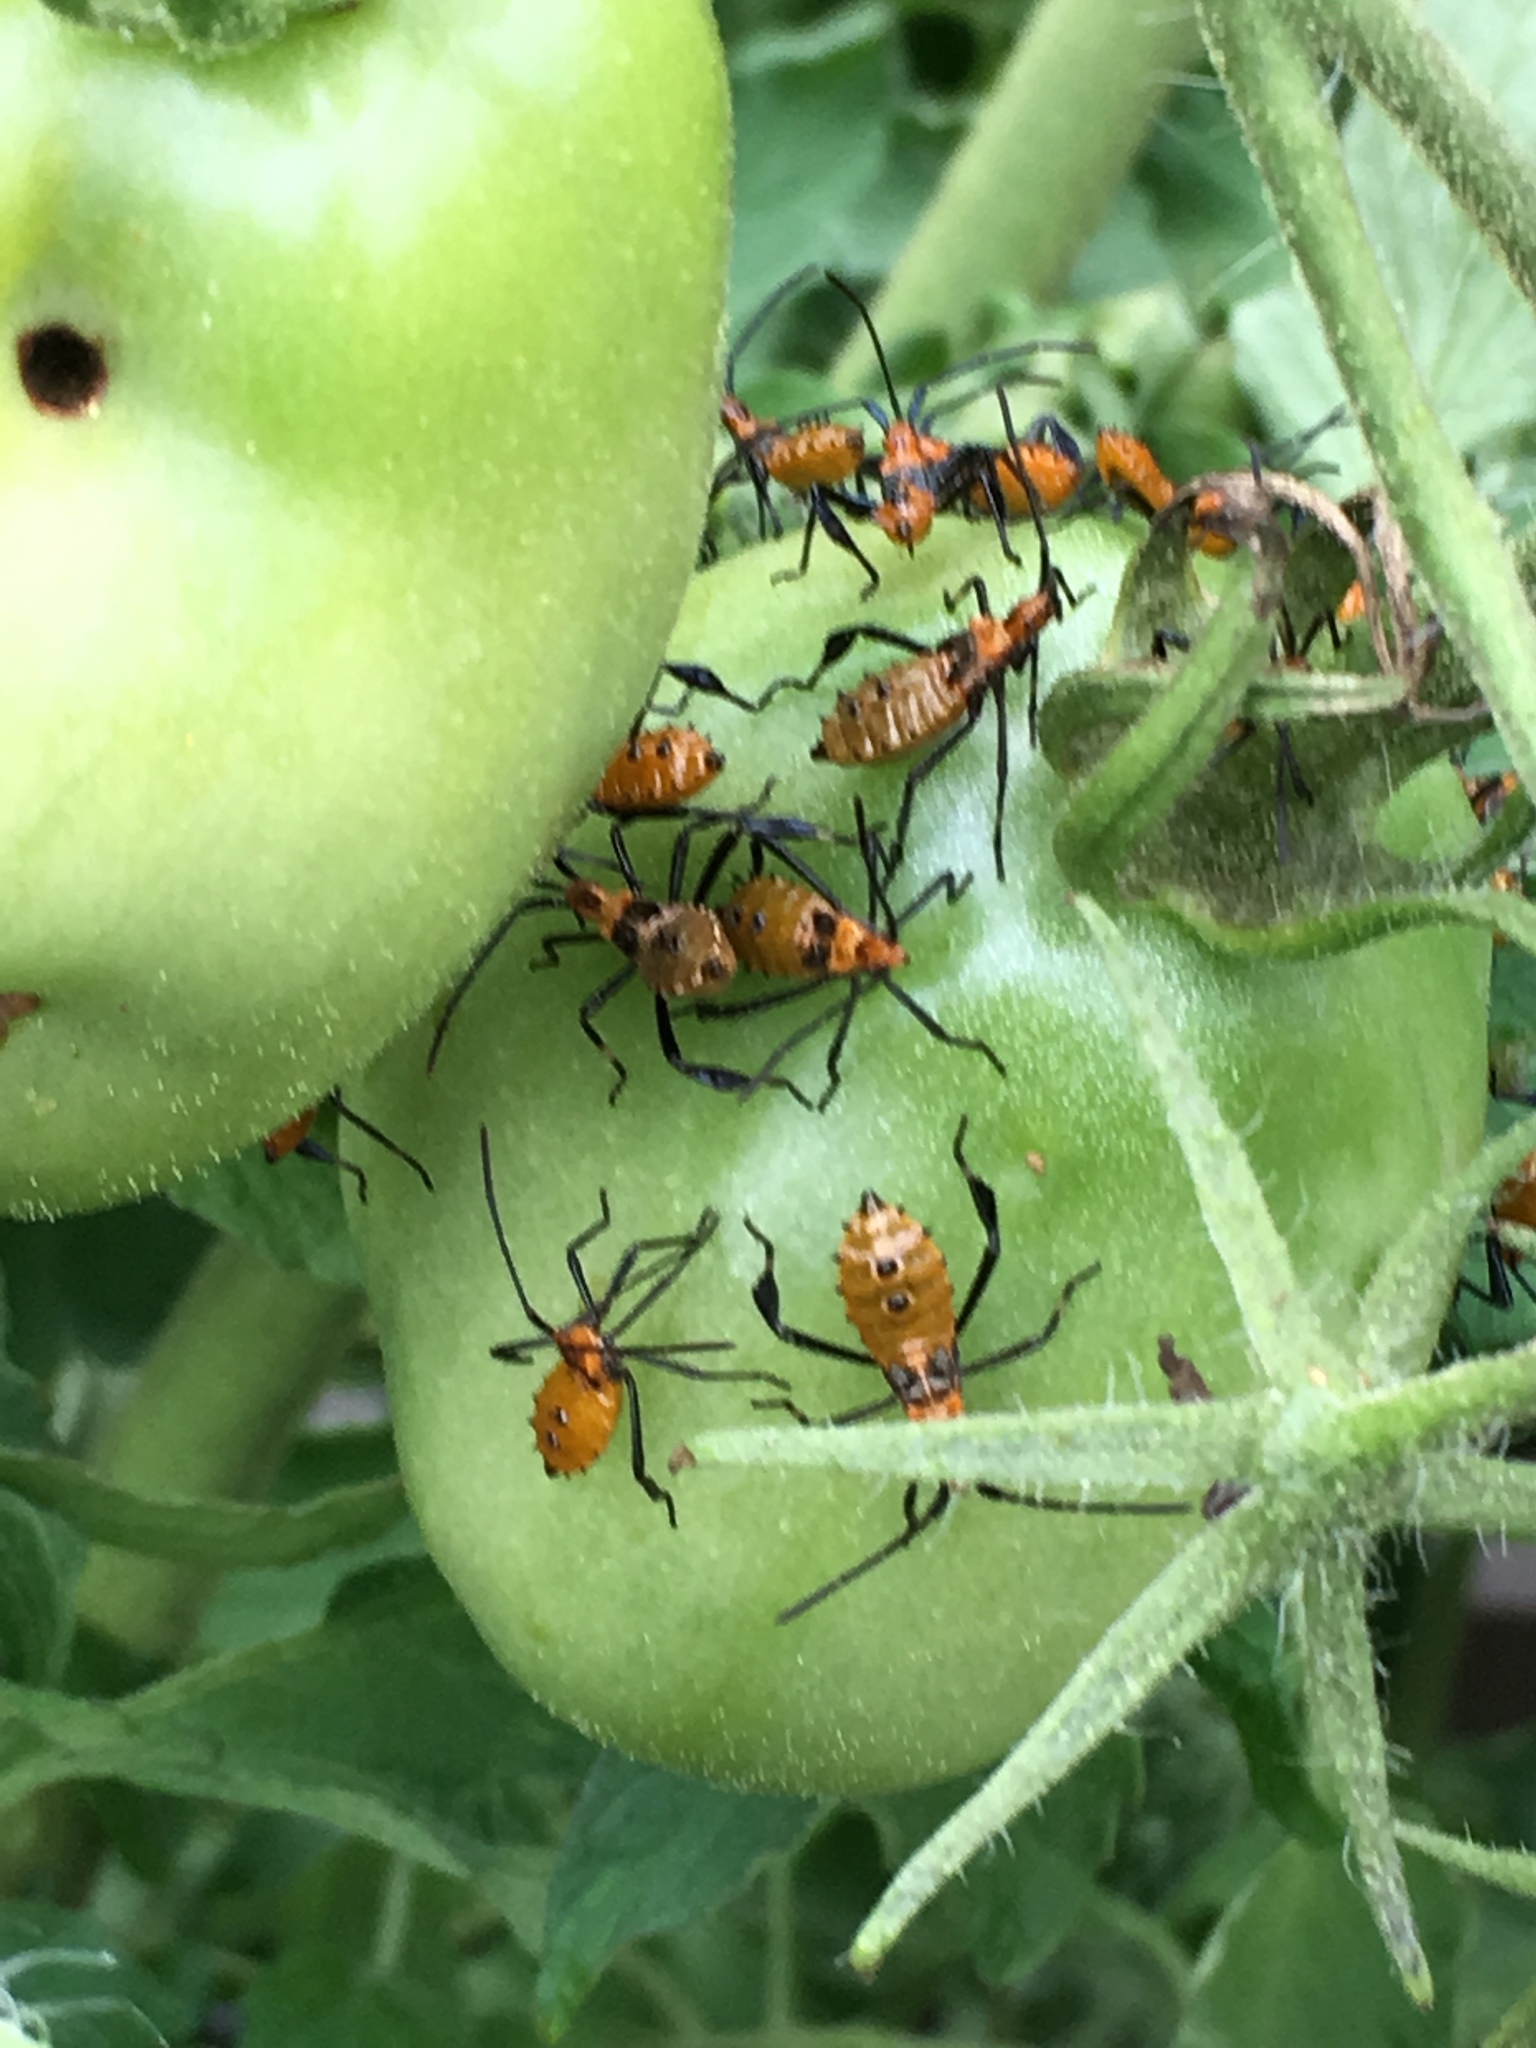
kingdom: Animalia
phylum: Arthropoda
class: Insecta
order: Hemiptera
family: Coreidae
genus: Leptoglossus
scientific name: Leptoglossus phyllopus
